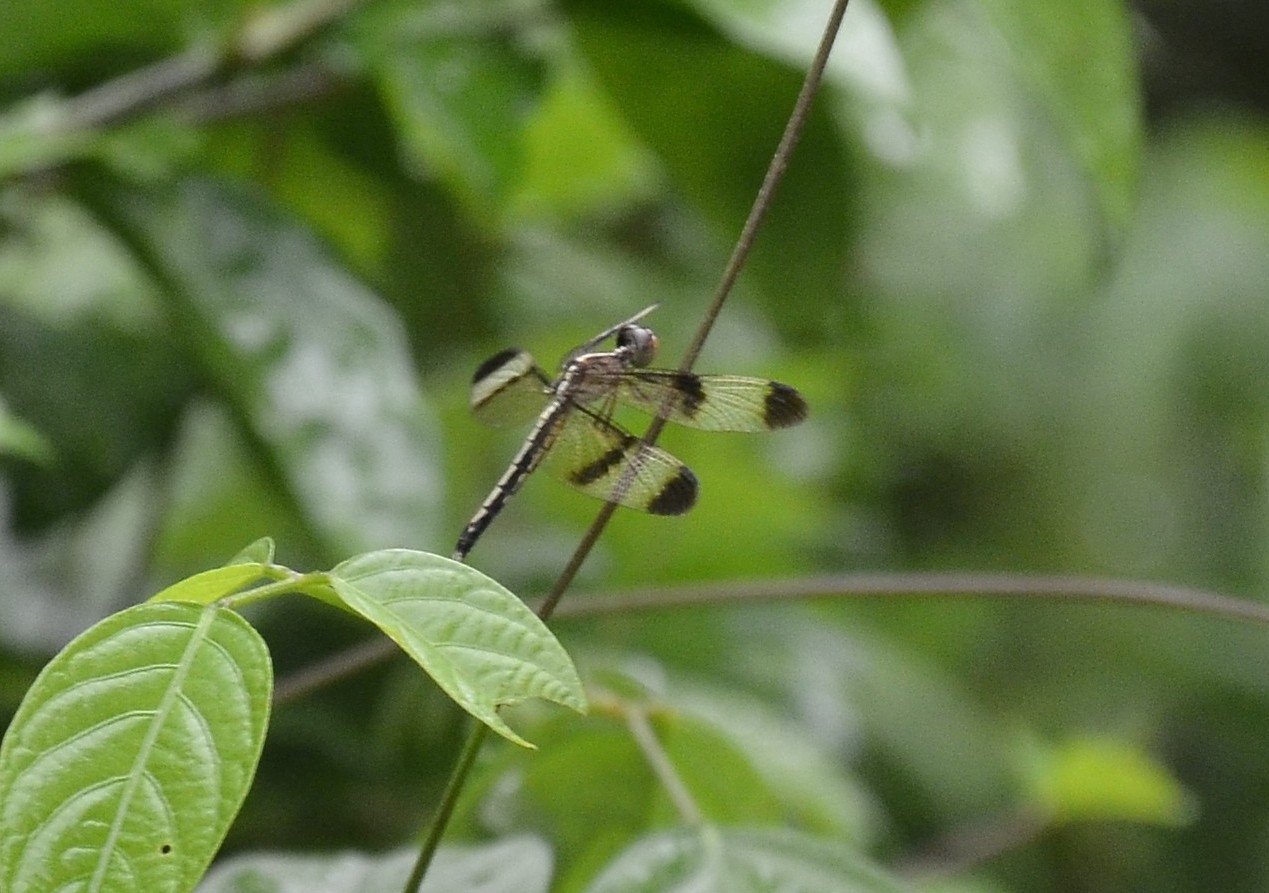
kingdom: Animalia
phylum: Arthropoda
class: Insecta
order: Odonata
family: Libellulidae
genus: Neurothemis
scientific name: Neurothemis tullia
